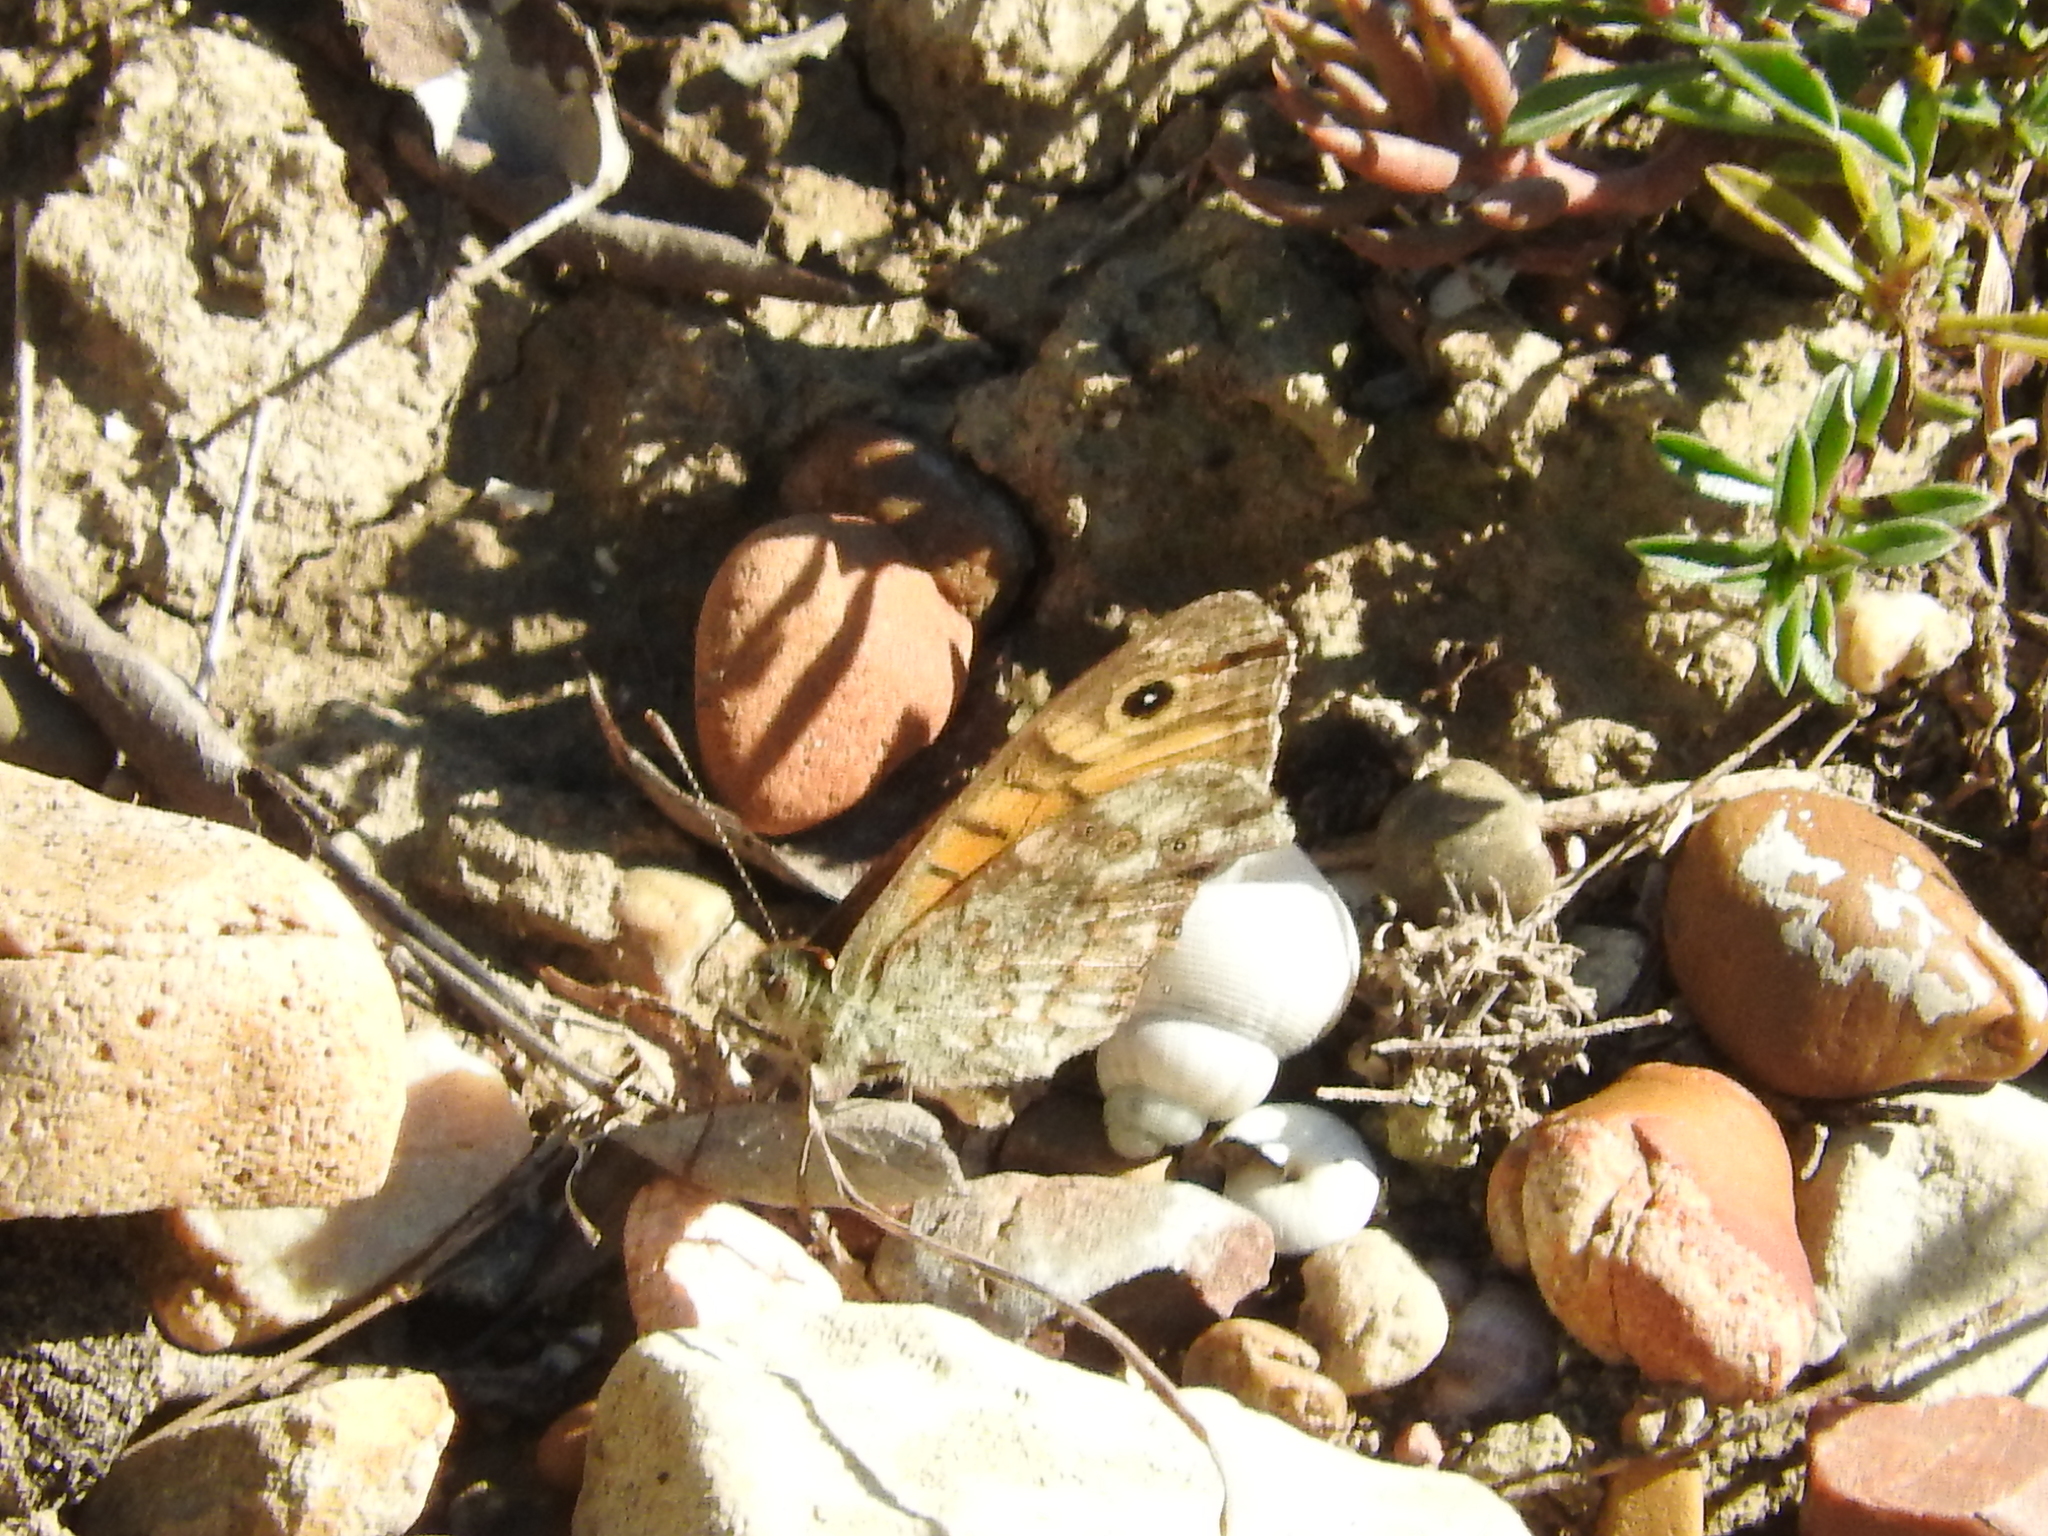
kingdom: Animalia
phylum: Arthropoda
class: Insecta
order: Lepidoptera
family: Nymphalidae
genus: Pararge
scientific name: Pararge Lasiommata megera
